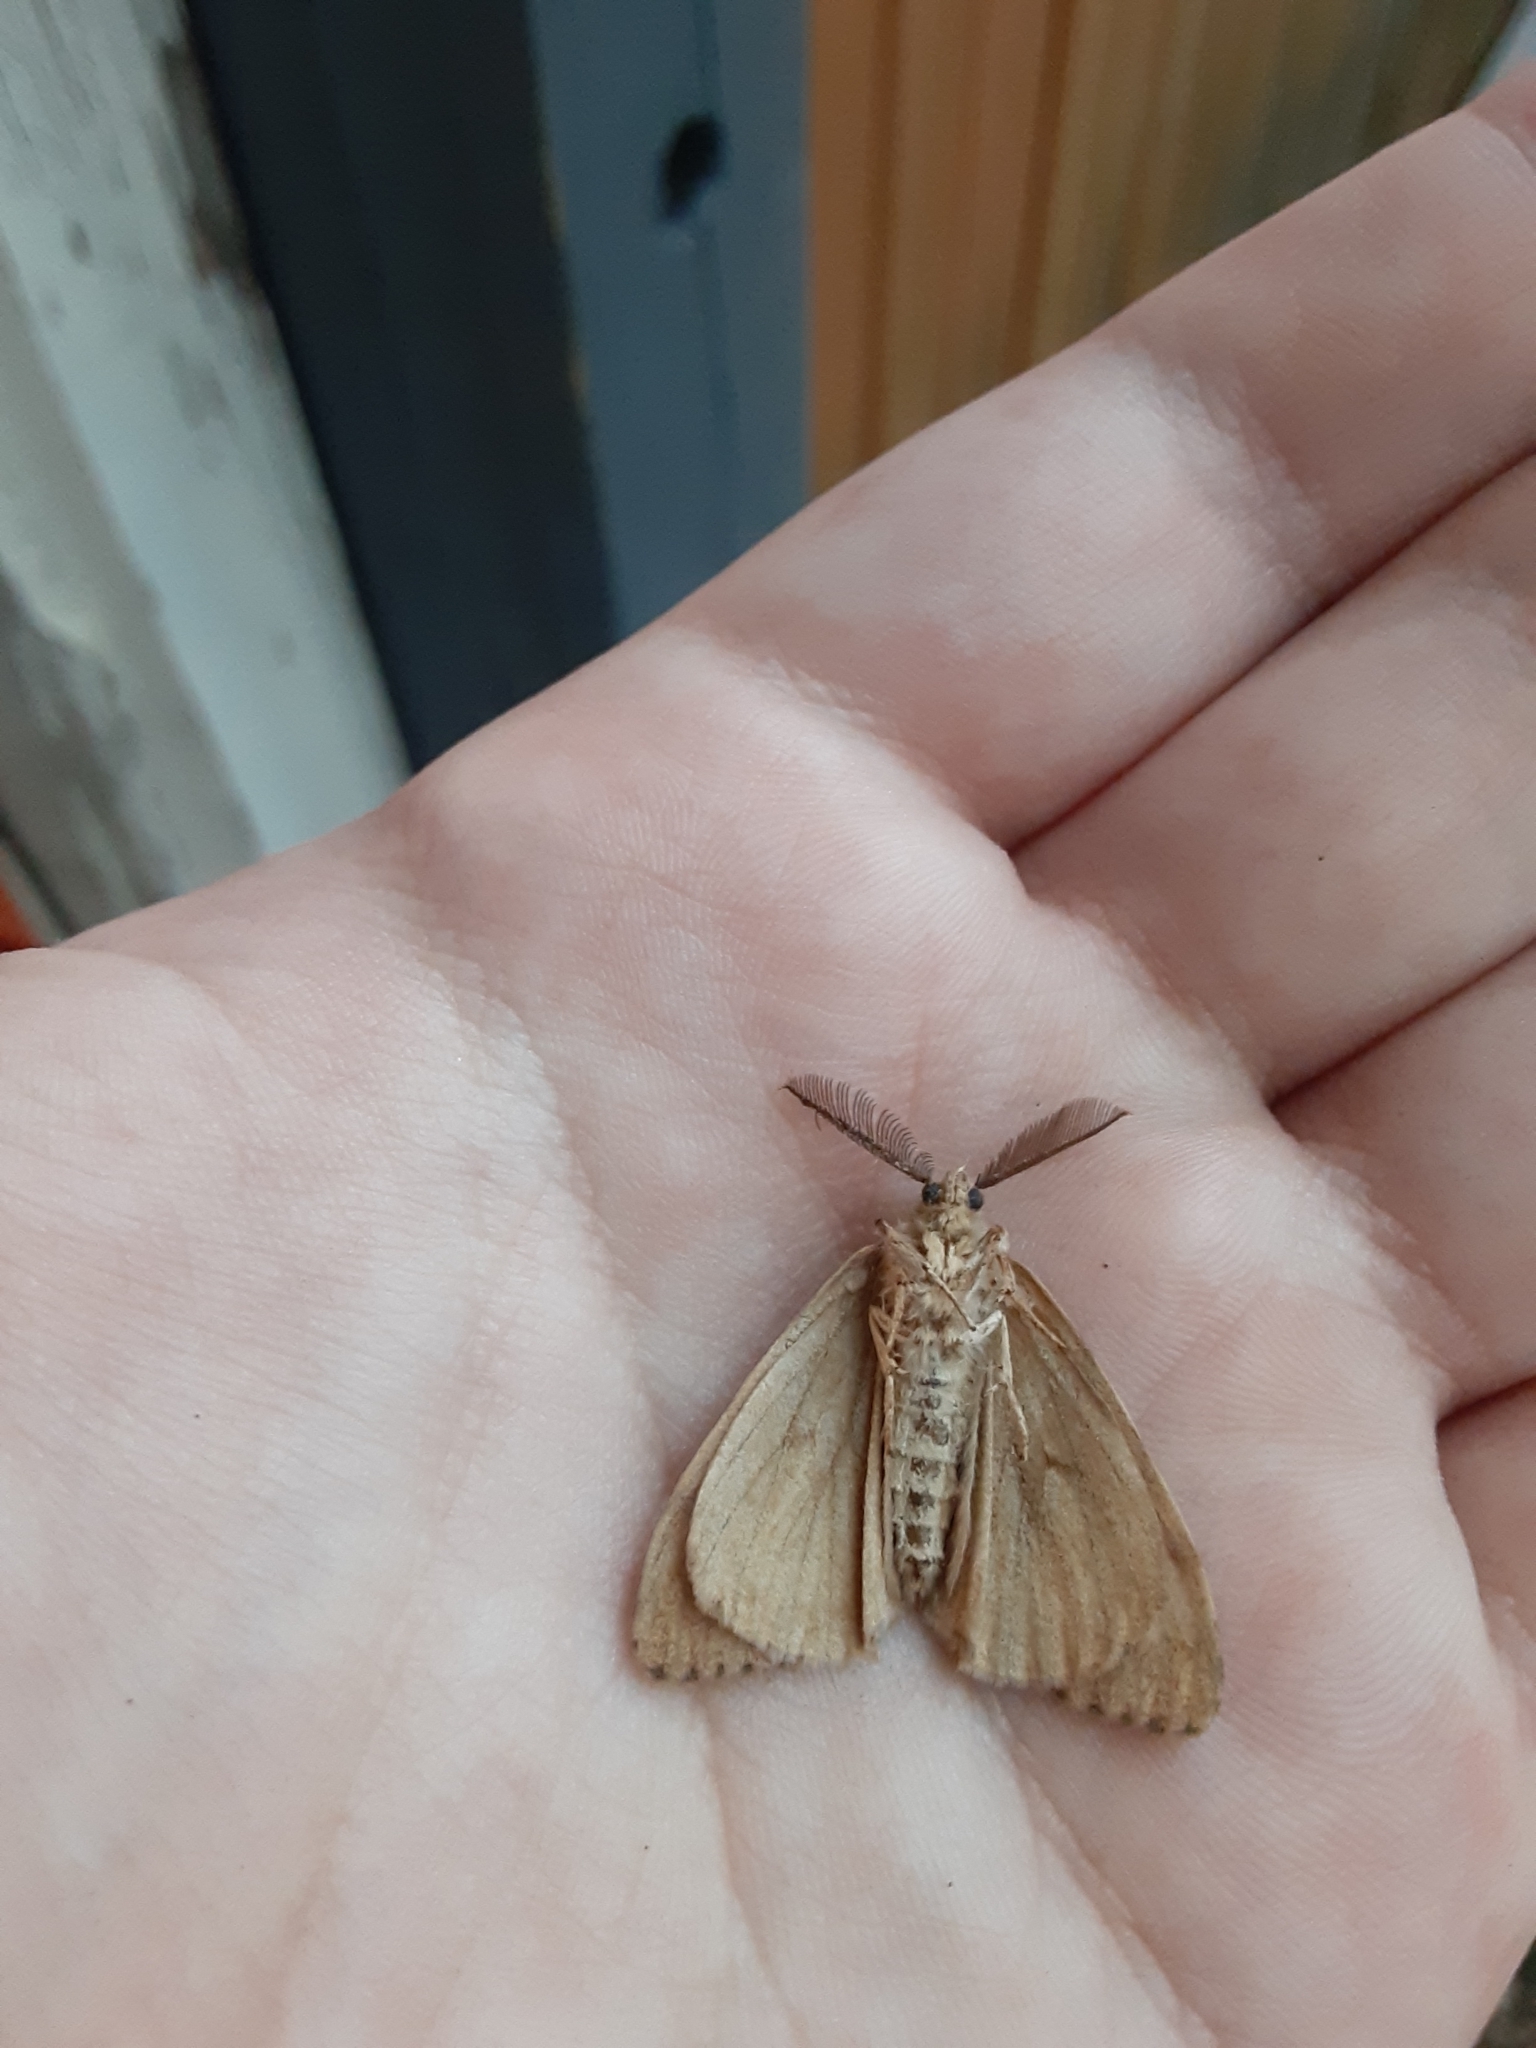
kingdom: Animalia
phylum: Arthropoda
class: Insecta
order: Lepidoptera
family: Erebidae
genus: Lymantria
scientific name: Lymantria dispar
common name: Gypsy moth
